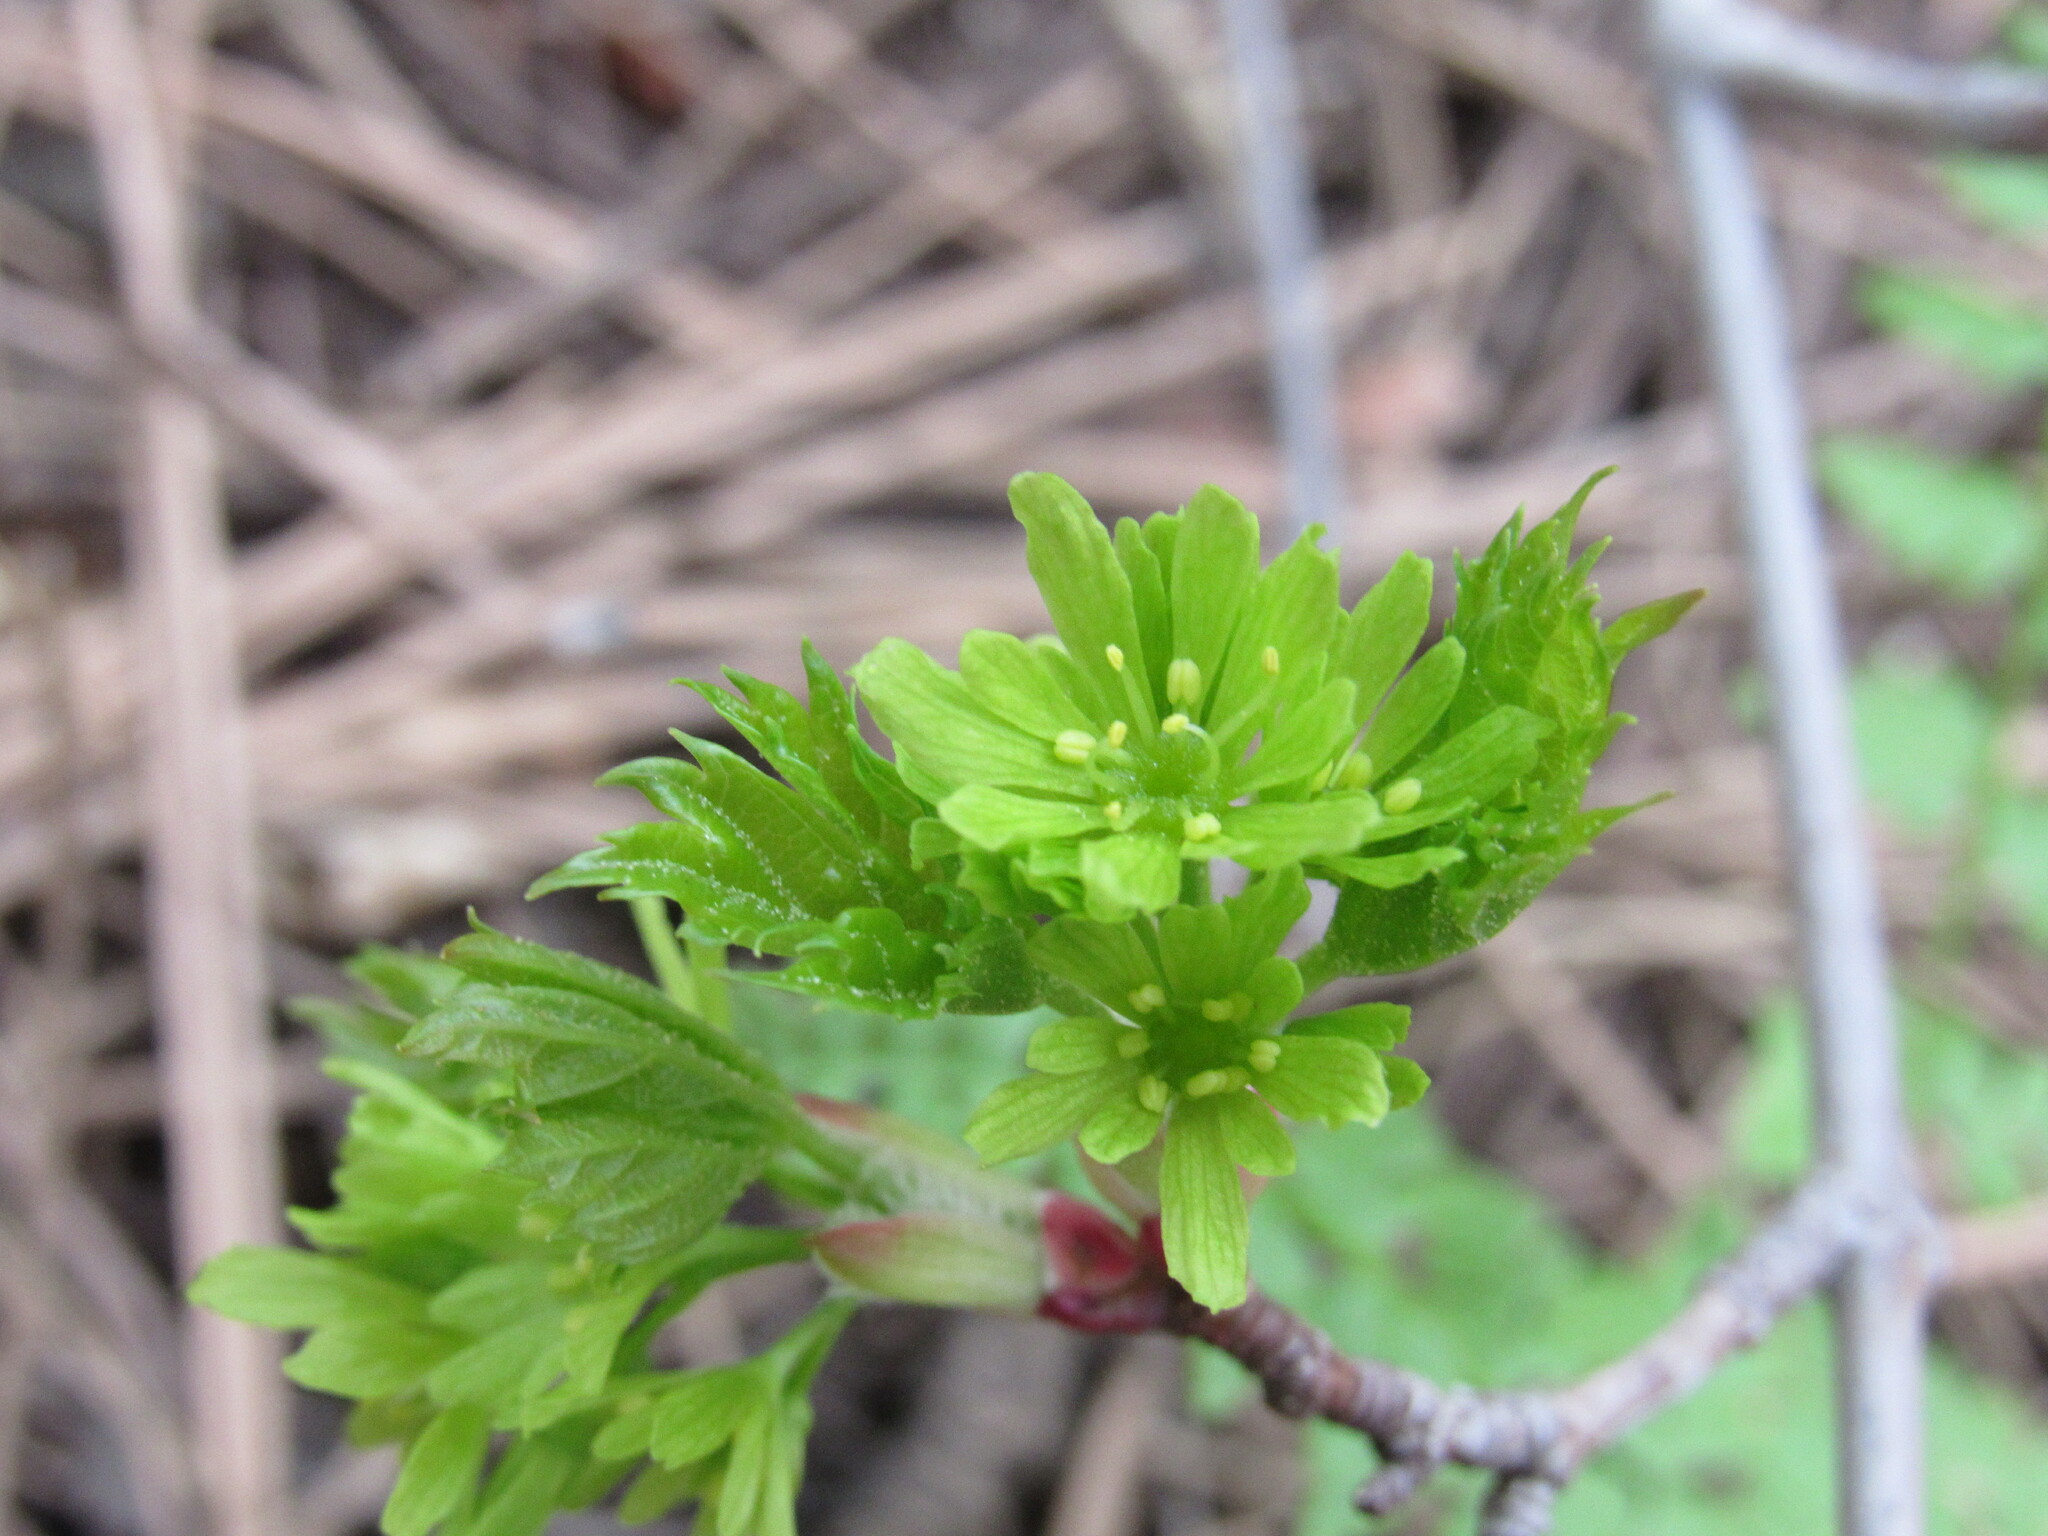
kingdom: Plantae
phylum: Tracheophyta
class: Magnoliopsida
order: Sapindales
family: Sapindaceae
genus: Acer
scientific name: Acer glabrum
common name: Rocky mountain maple
